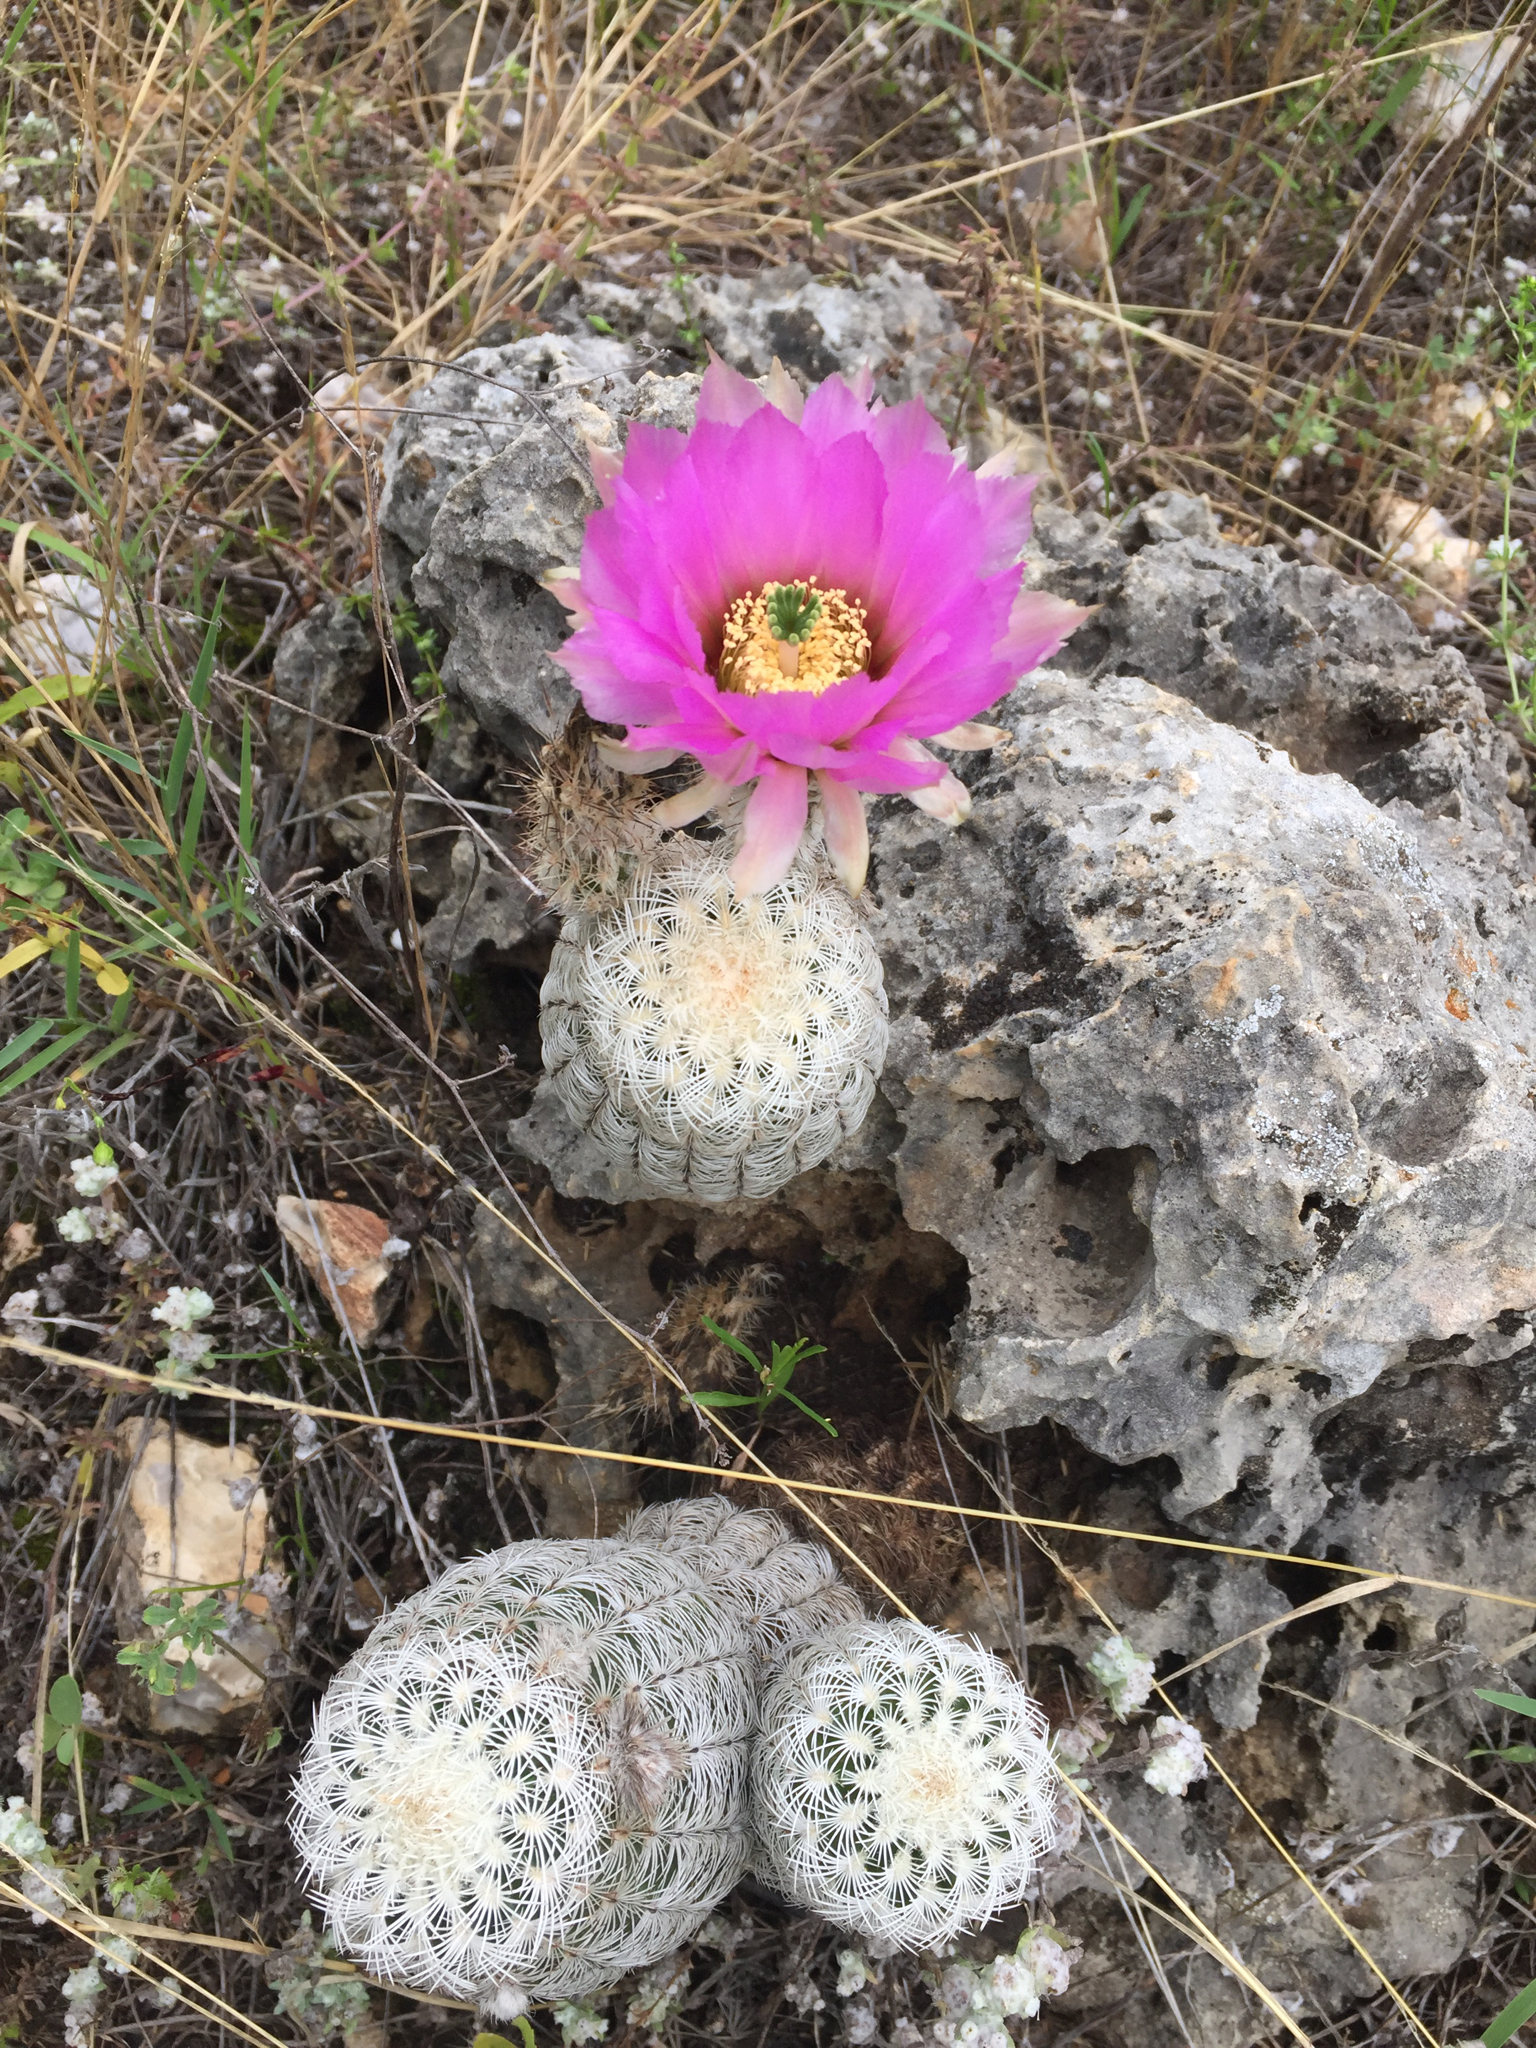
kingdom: Plantae
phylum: Tracheophyta
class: Magnoliopsida
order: Caryophyllales
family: Cactaceae
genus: Echinocereus
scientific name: Echinocereus reichenbachii
